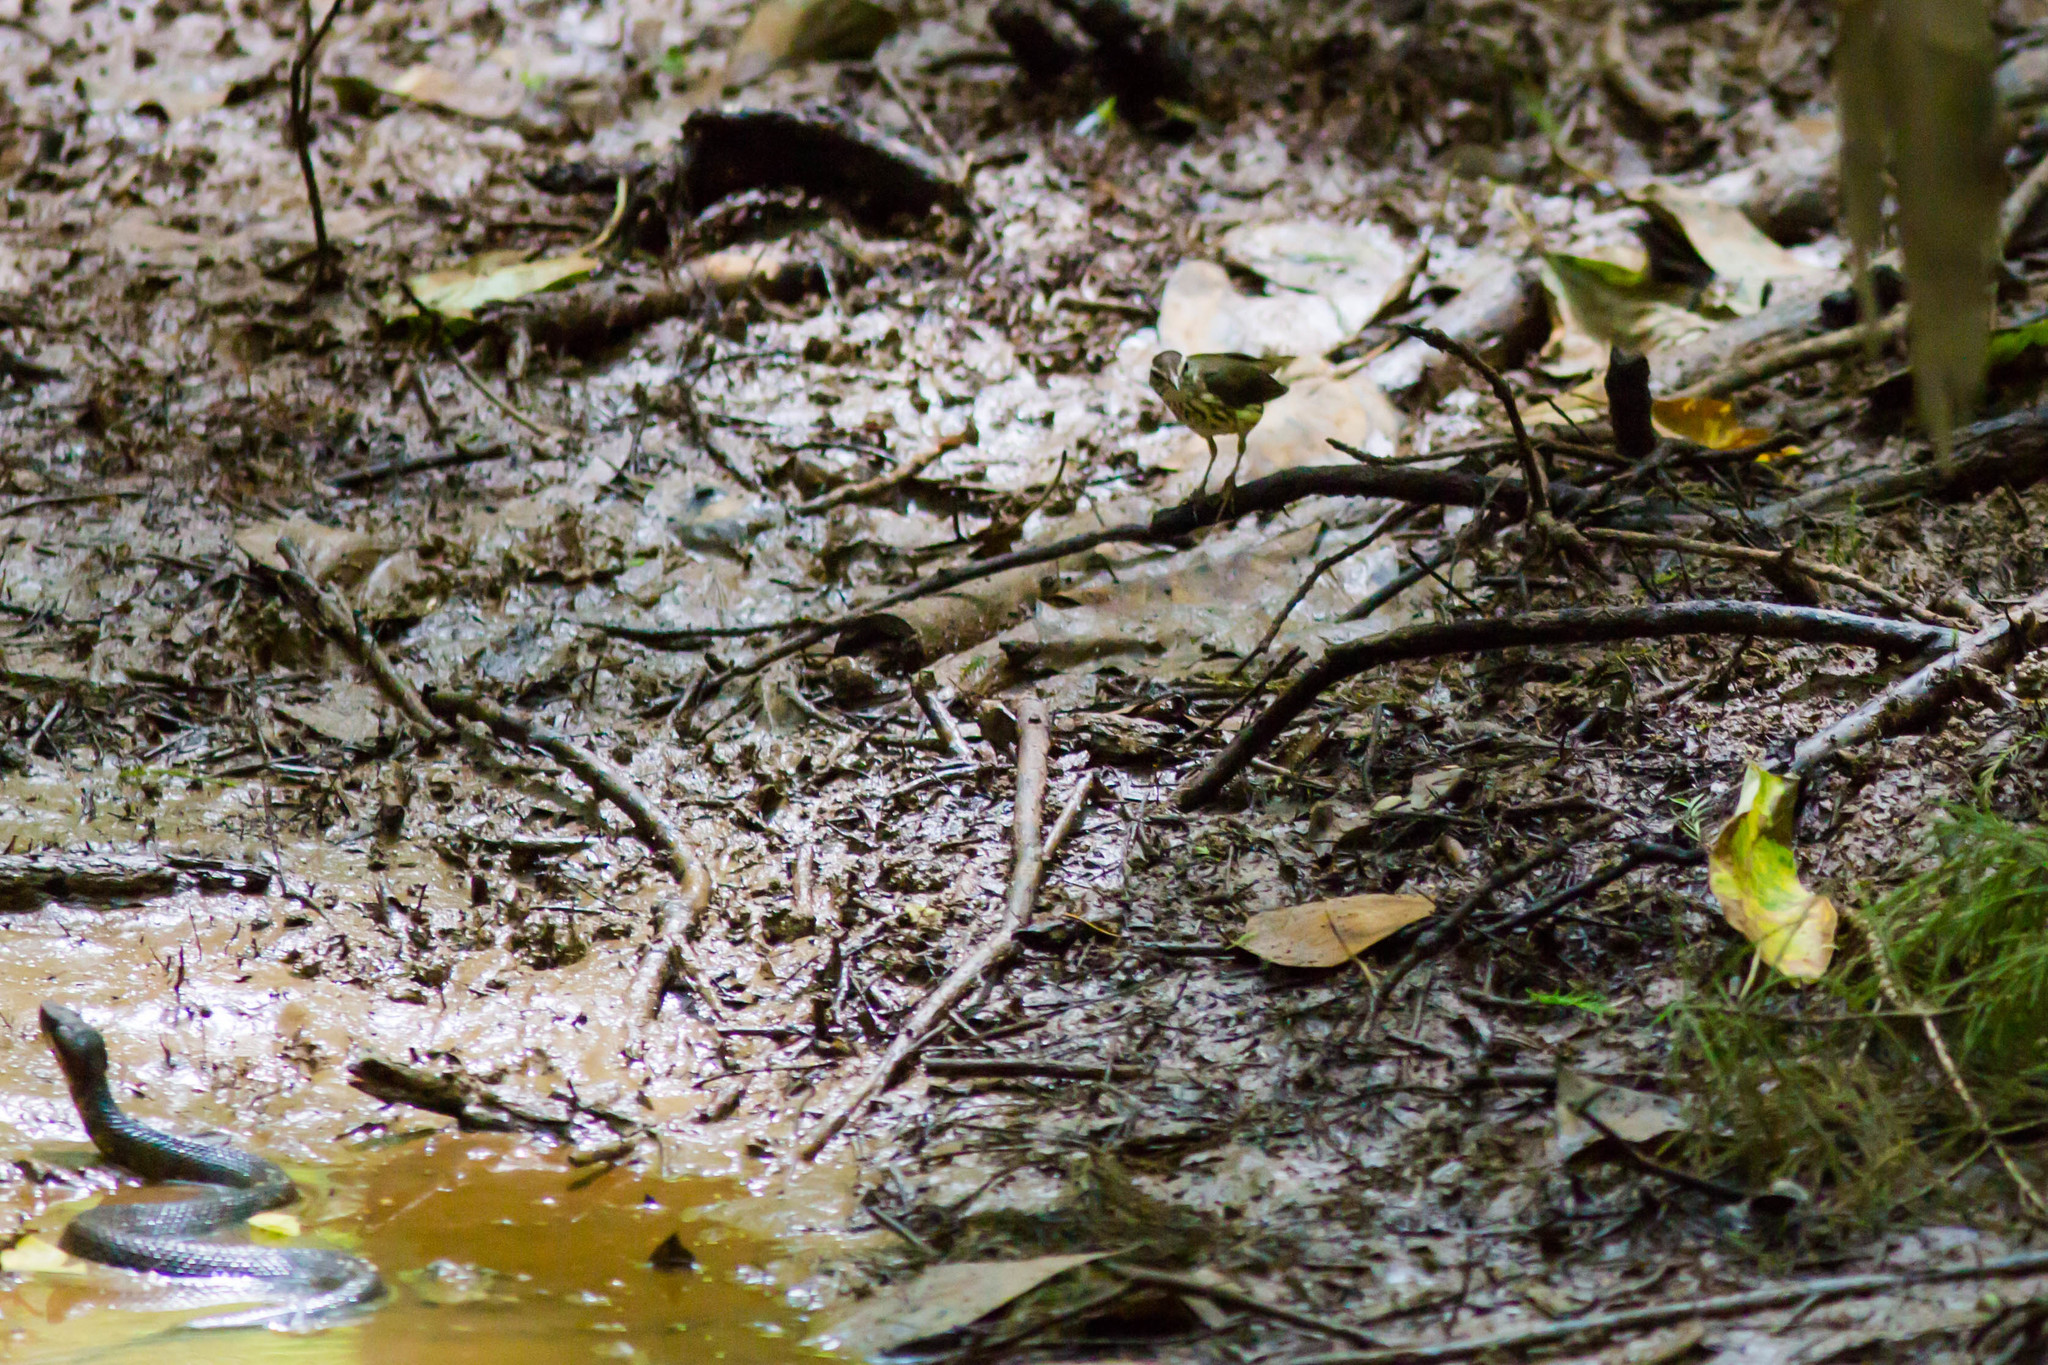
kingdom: Animalia
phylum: Chordata
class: Aves
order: Passeriformes
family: Parulidae
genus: Parkesia
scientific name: Parkesia motacilla
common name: Louisiana waterthrush
